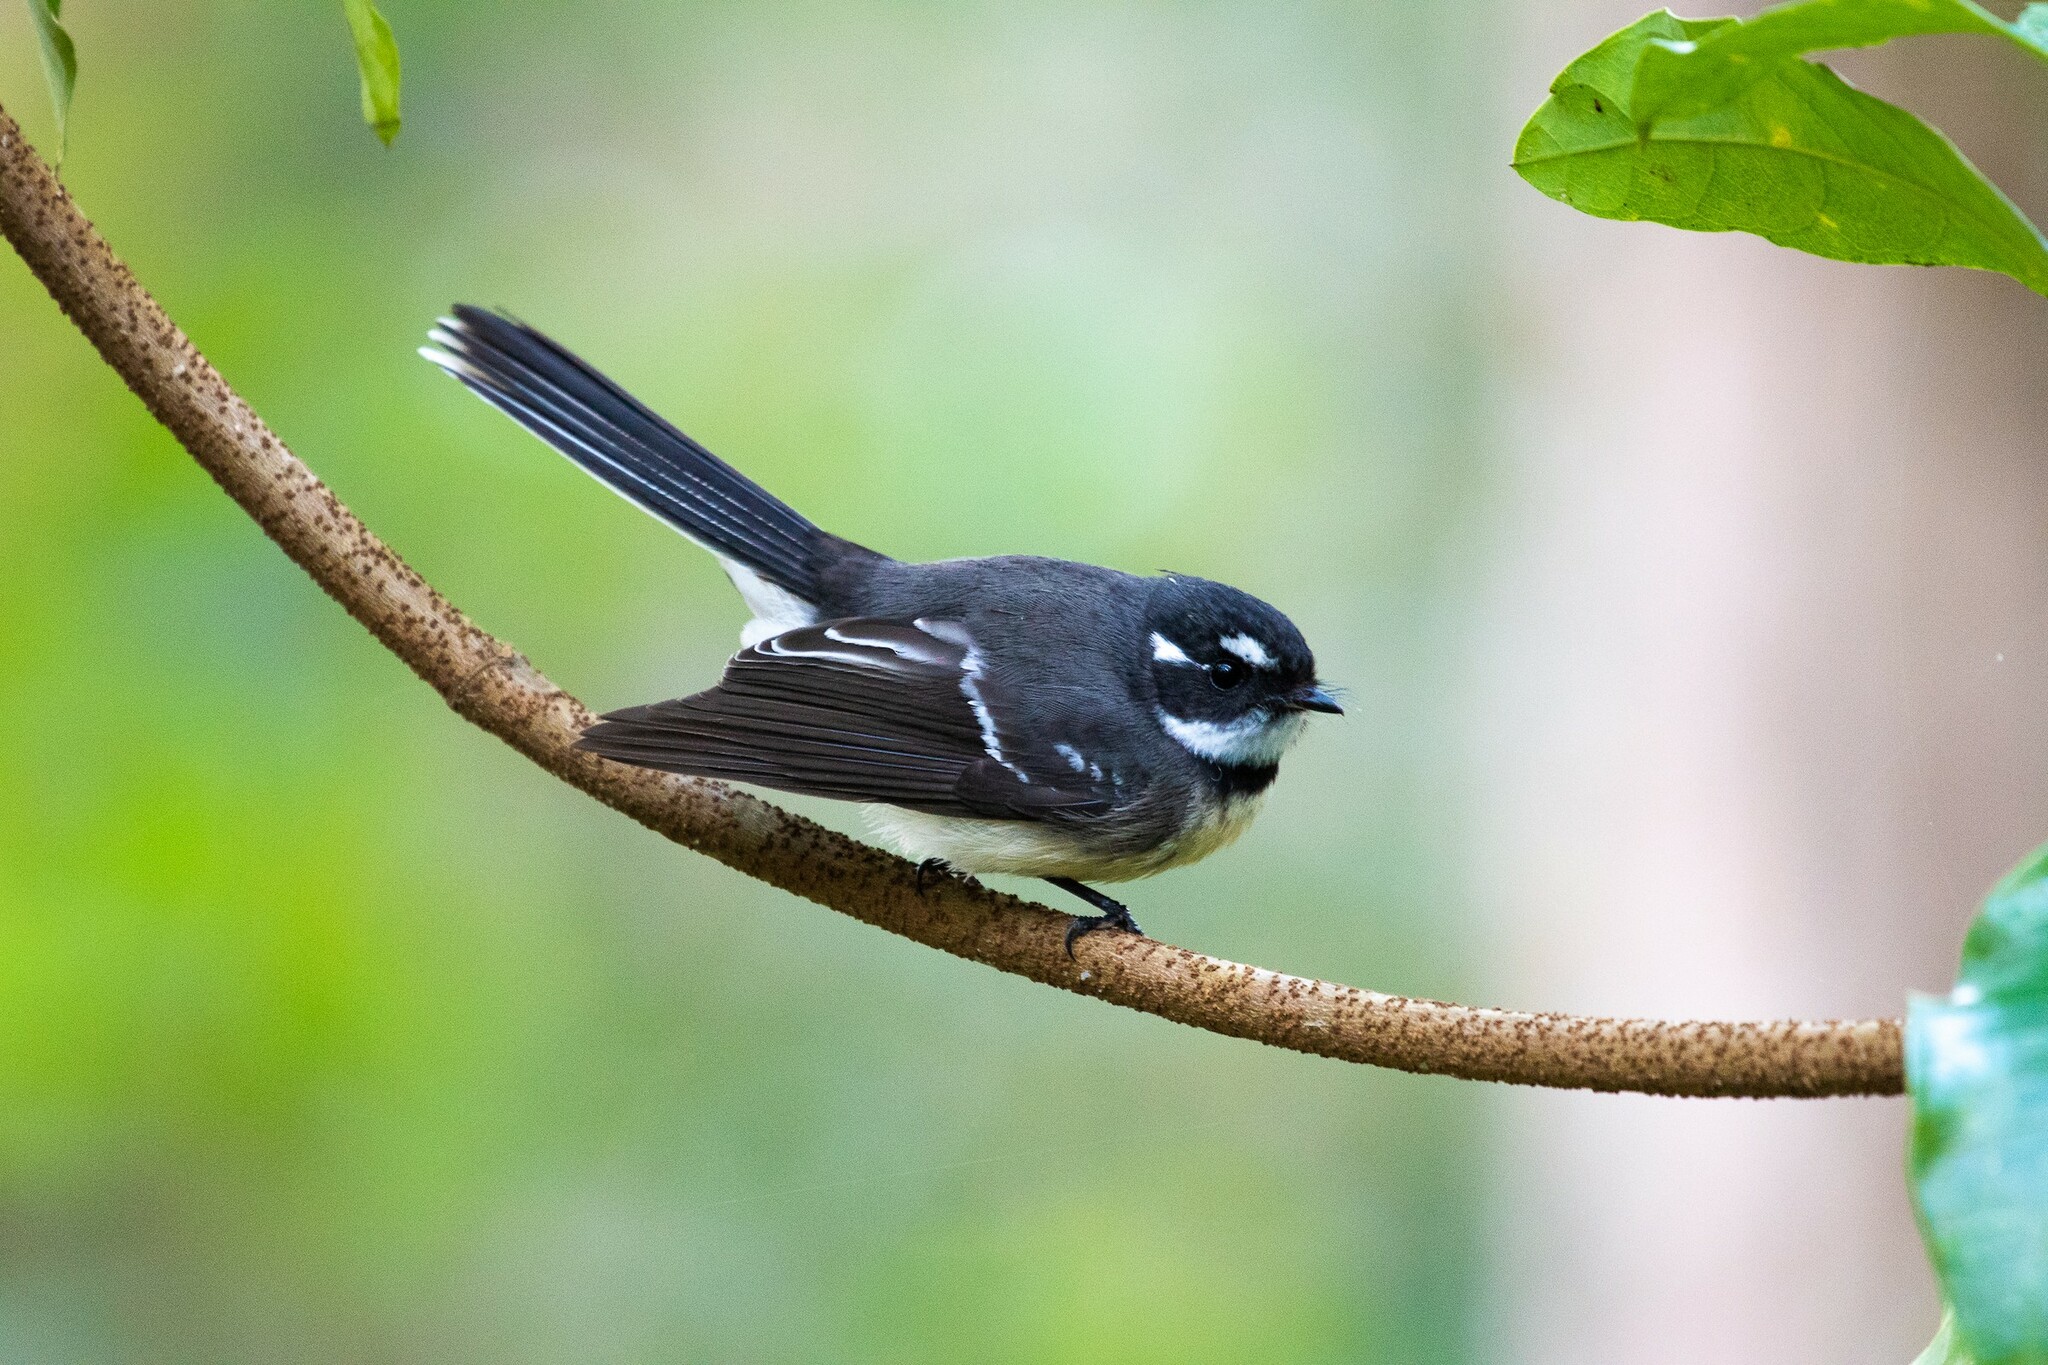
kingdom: Animalia
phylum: Chordata
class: Aves
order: Passeriformes
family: Rhipiduridae
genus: Rhipidura
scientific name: Rhipidura albiscapa
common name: Grey fantail
